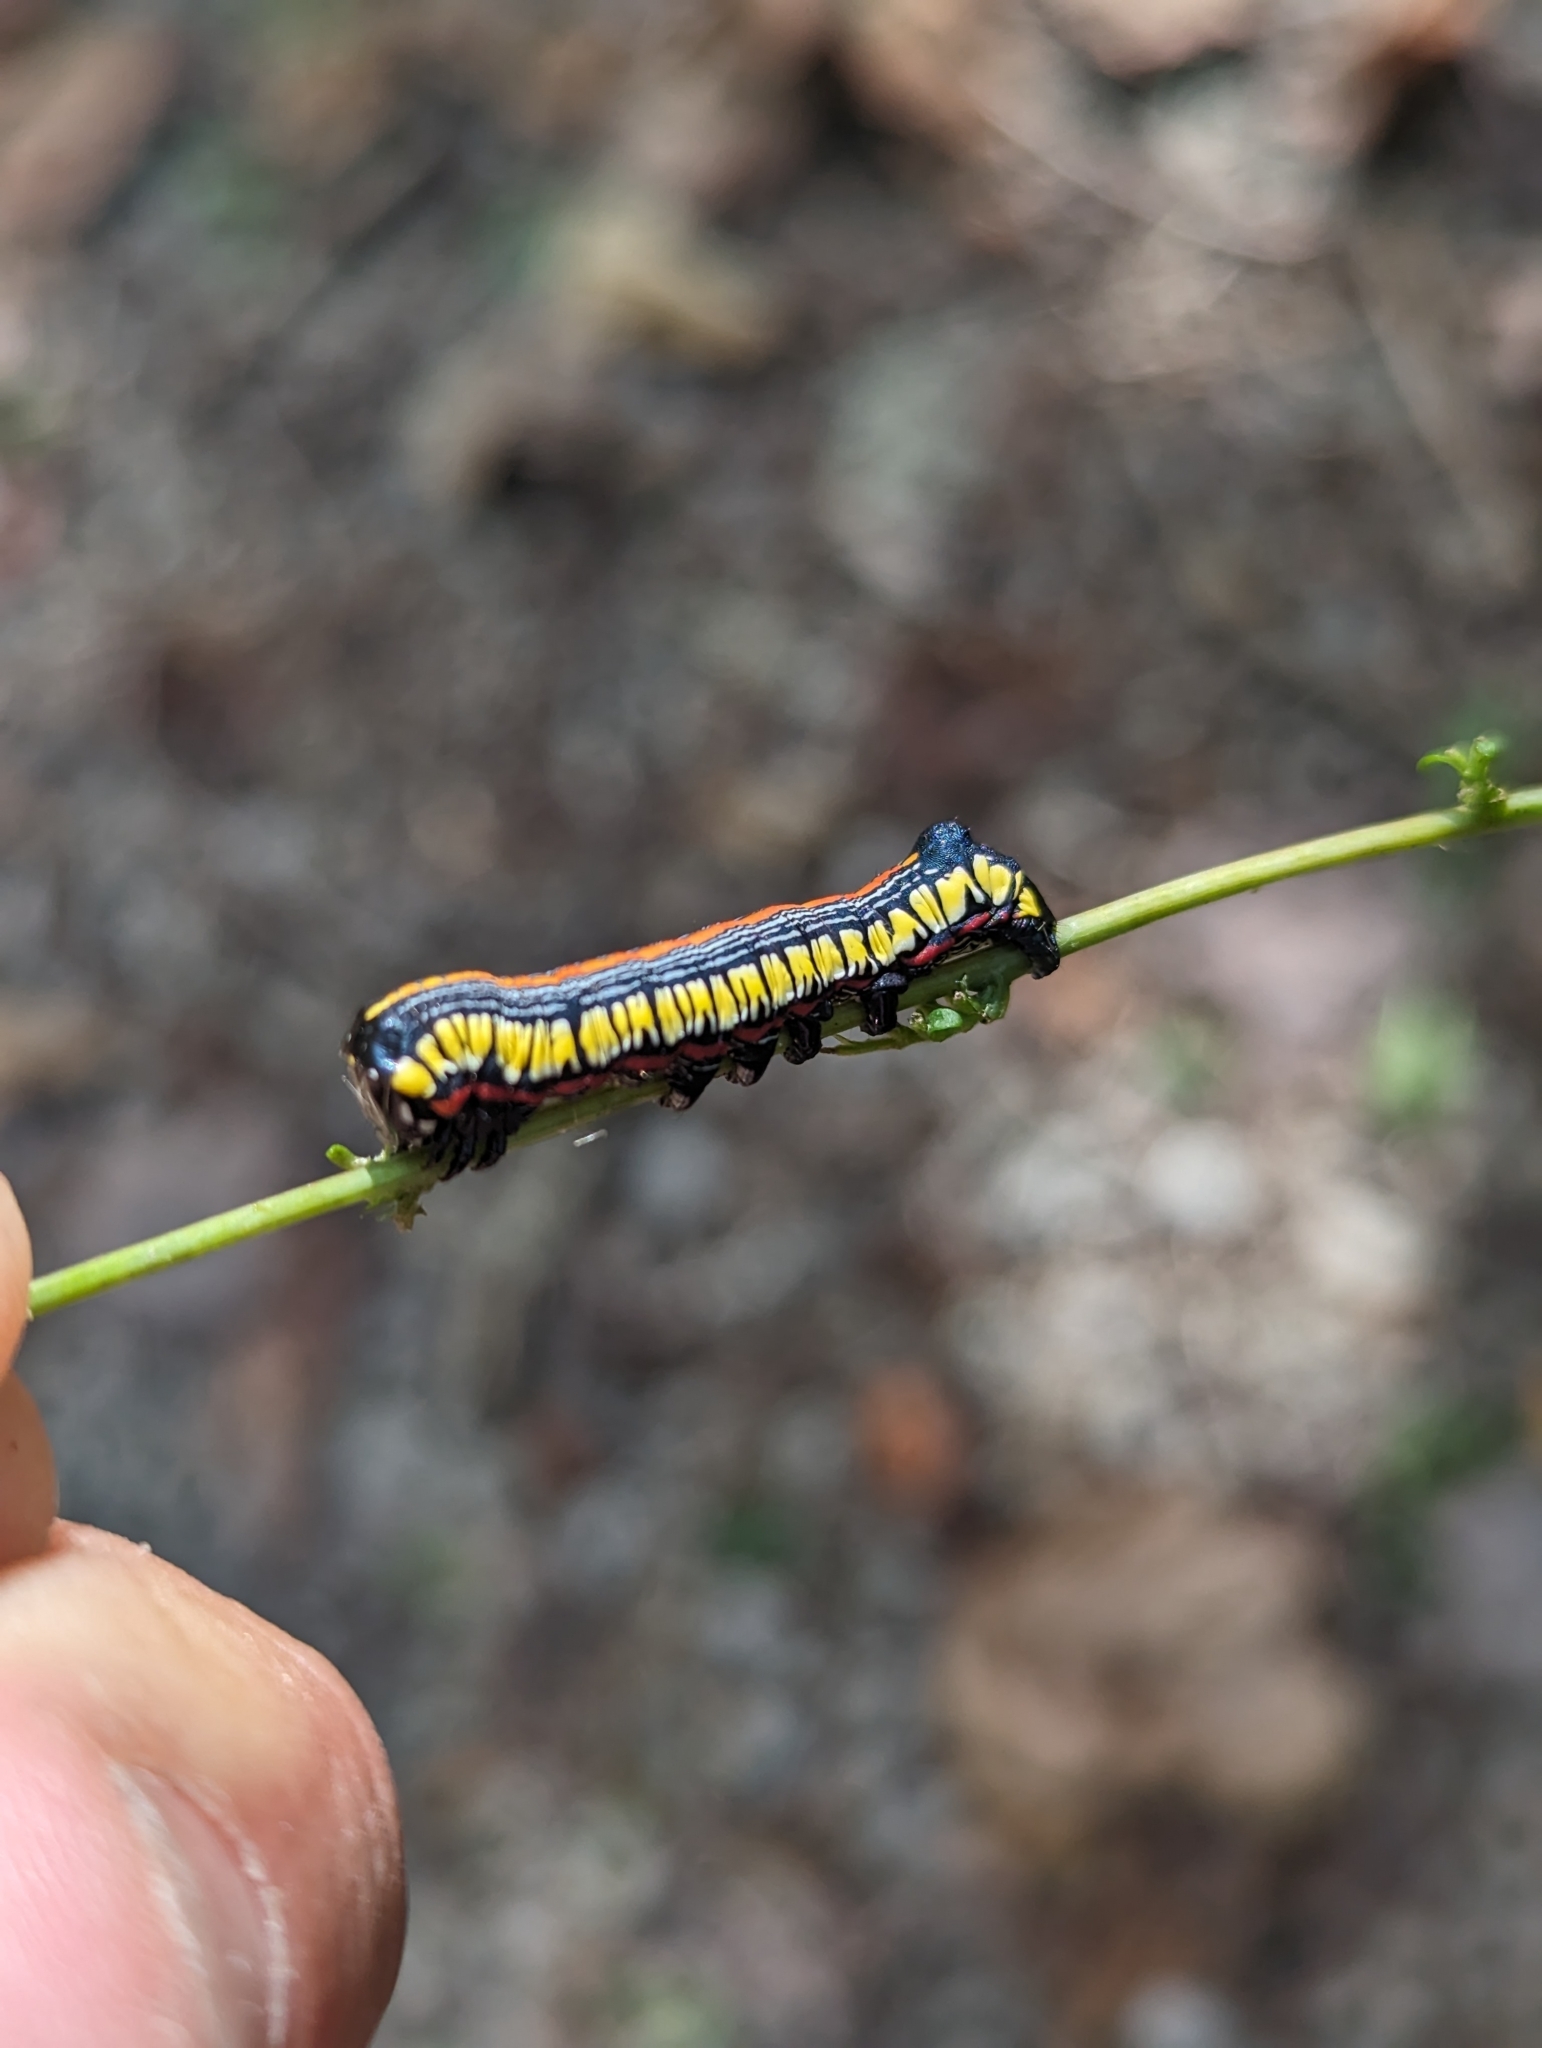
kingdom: Animalia
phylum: Arthropoda
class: Insecta
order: Lepidoptera
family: Noctuidae
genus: Cucullia
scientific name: Cucullia convexipennis
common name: Brown-hooded owlet
